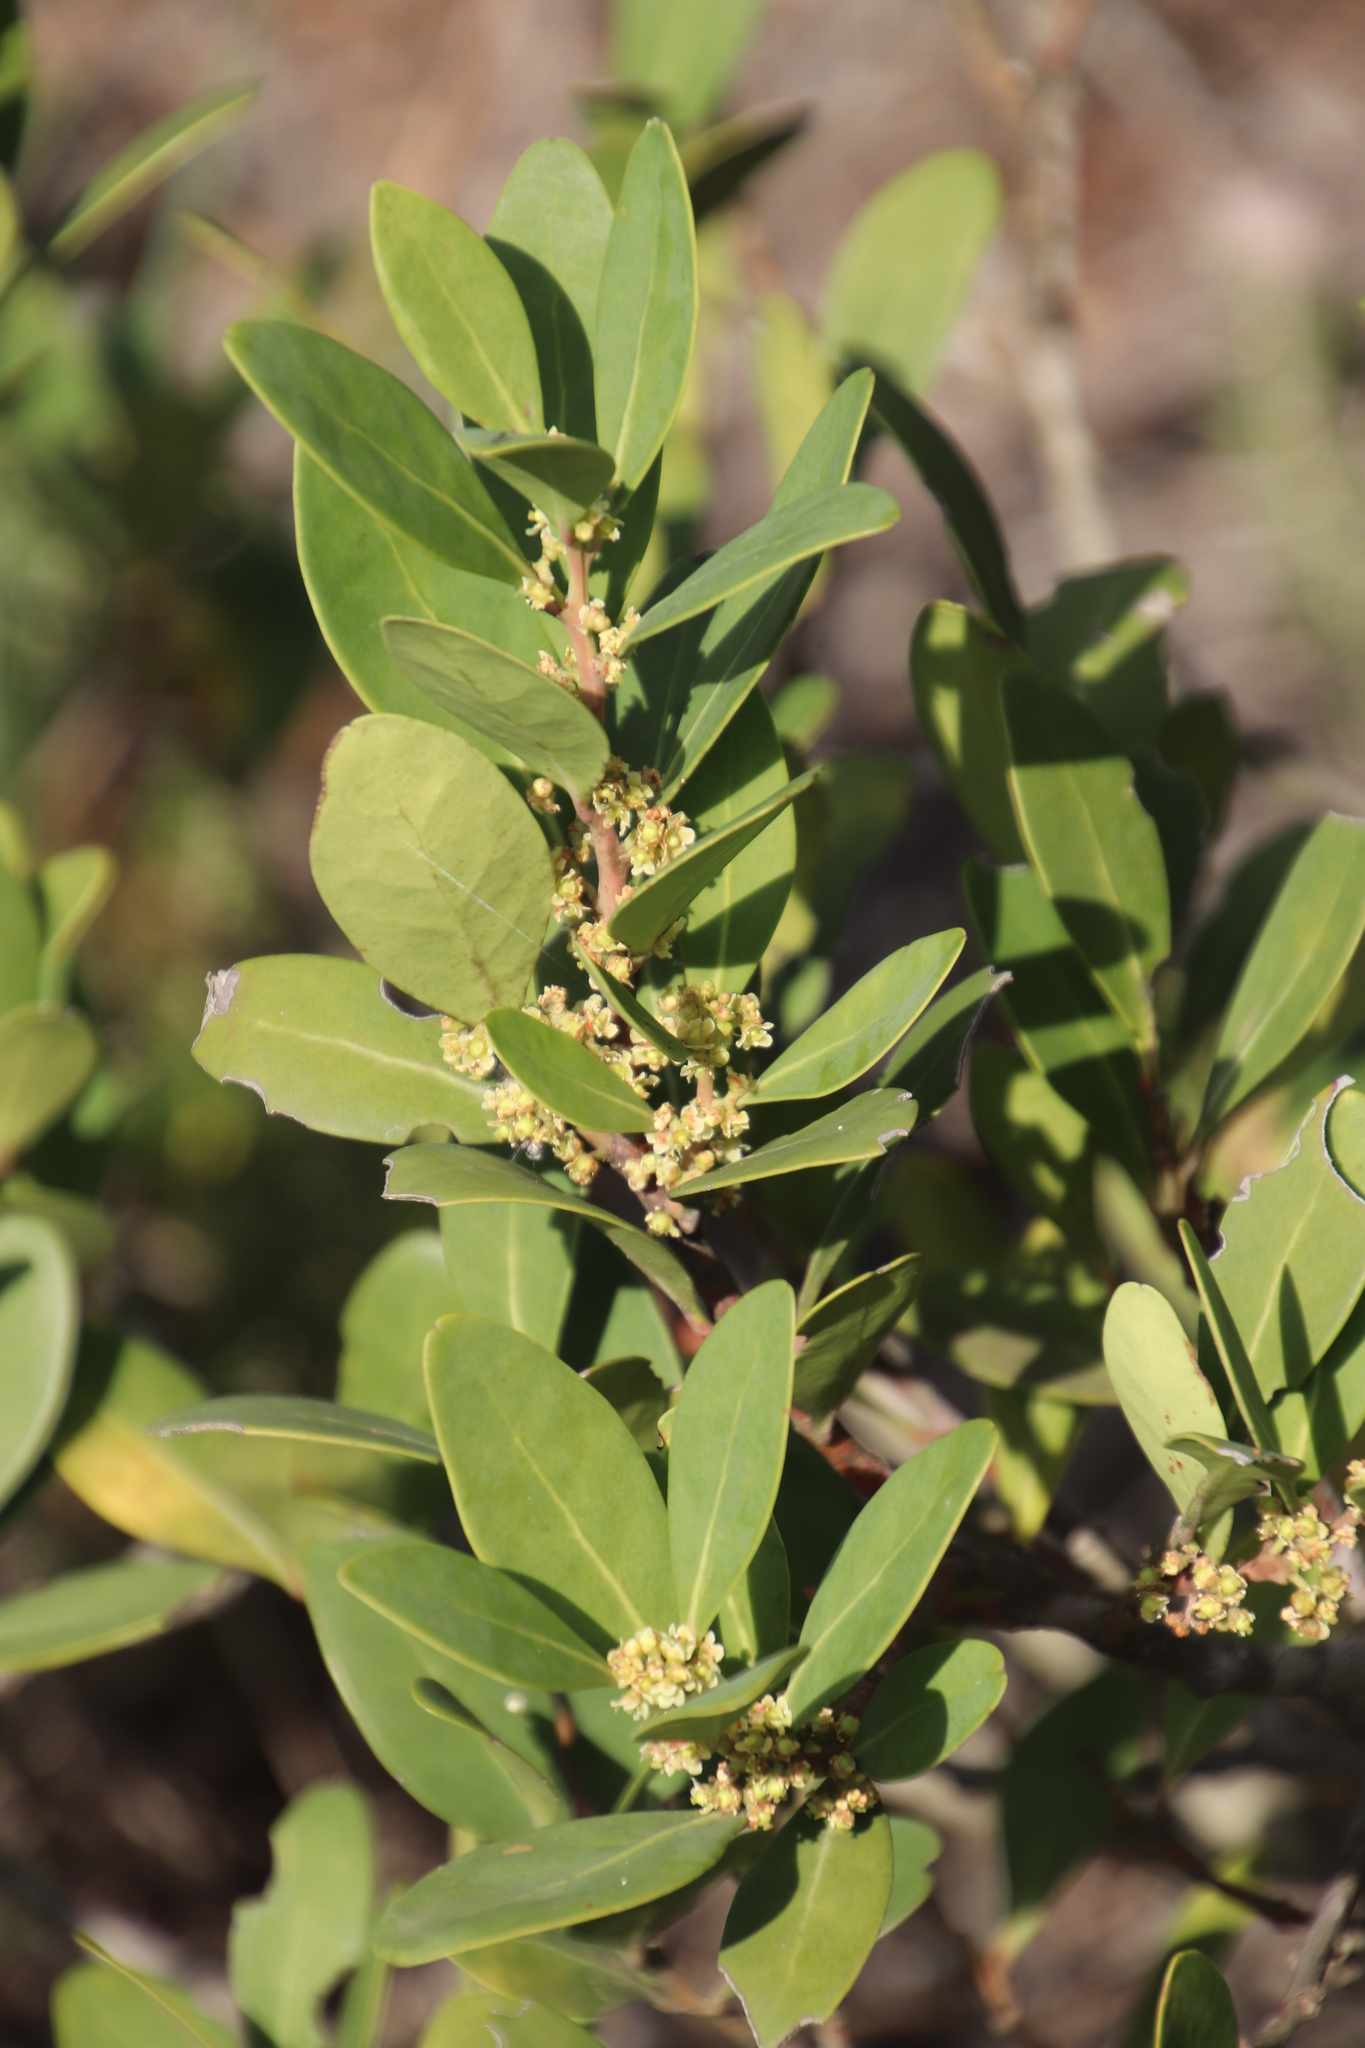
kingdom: Plantae
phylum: Tracheophyta
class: Magnoliopsida
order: Celastrales
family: Celastraceae
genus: Gymnosporia
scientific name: Gymnosporia laurina
